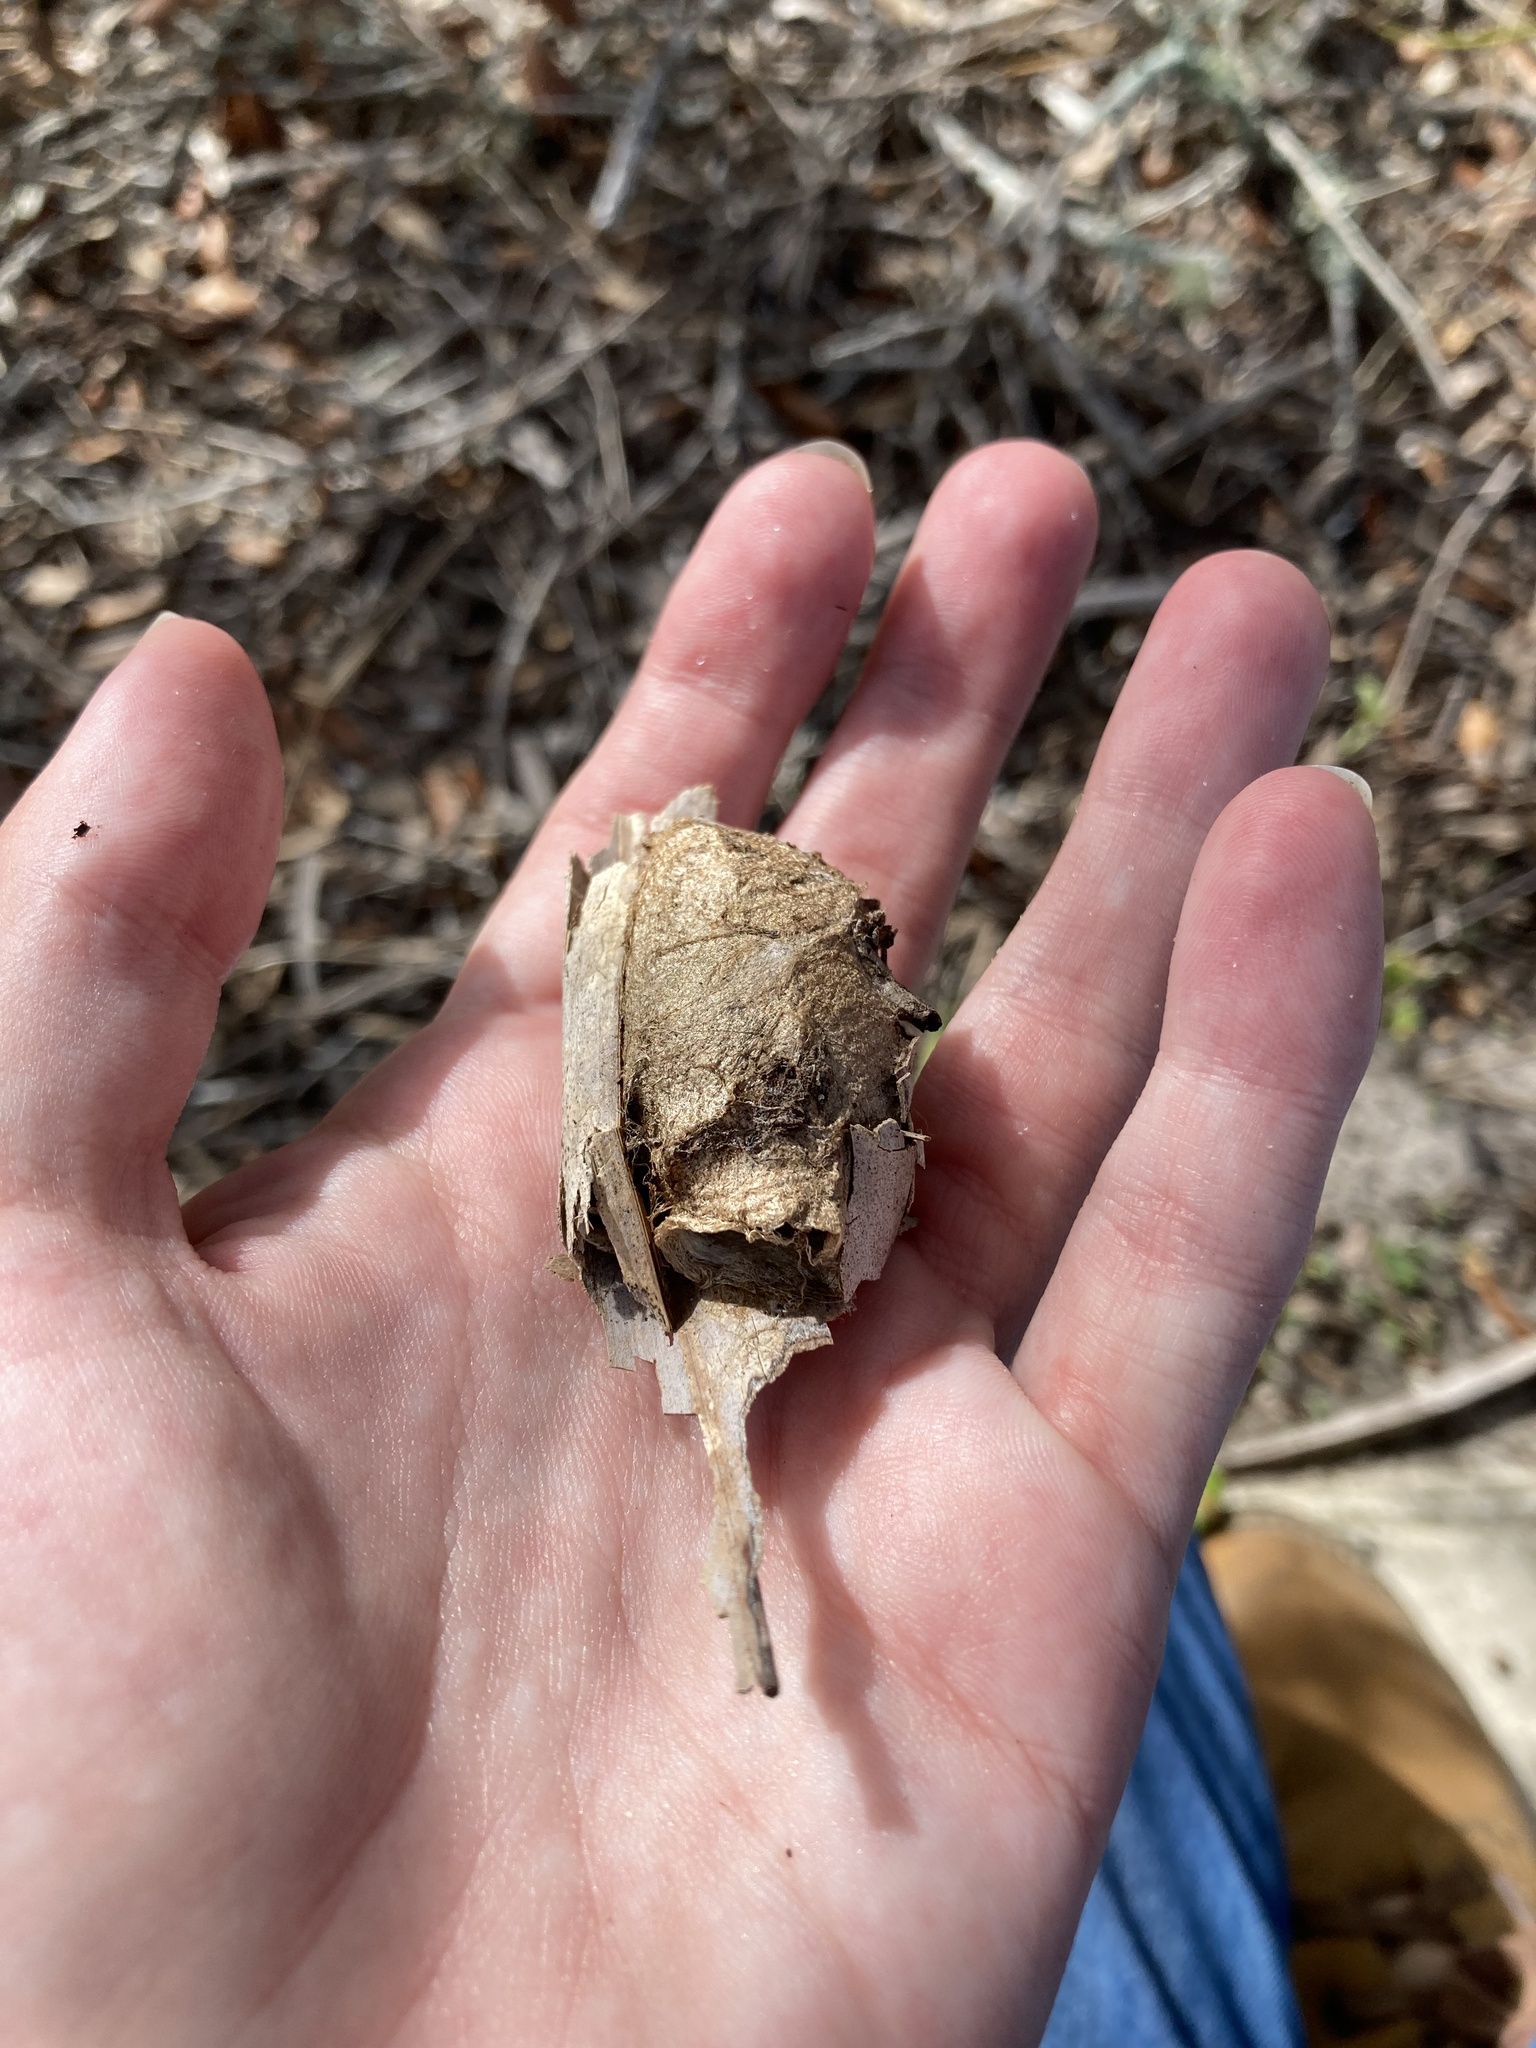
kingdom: Animalia
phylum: Arthropoda
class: Insecta
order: Lepidoptera
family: Saturniidae
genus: Antheraea
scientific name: Antheraea polyphemus
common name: Polyphemus moth
